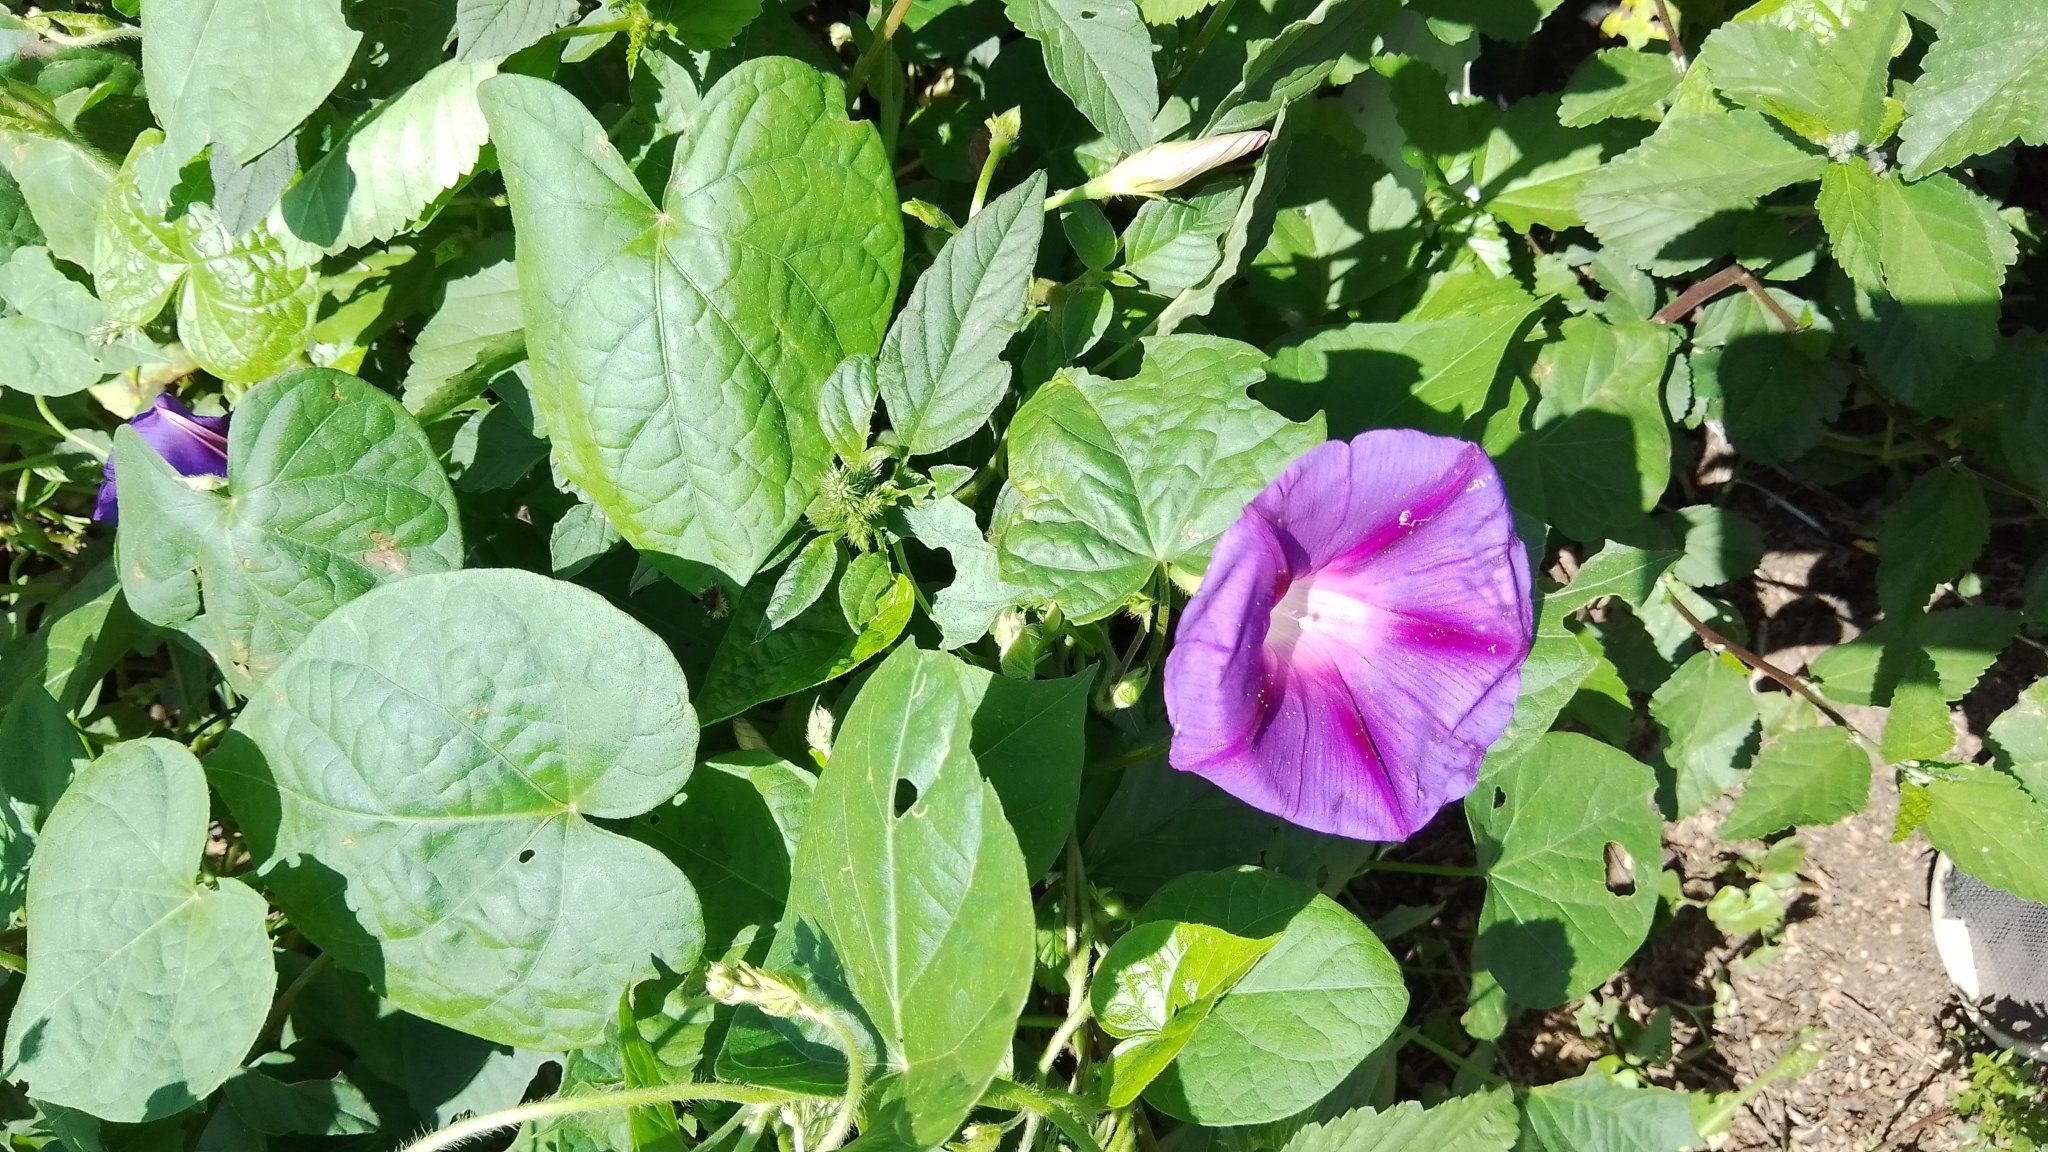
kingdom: Plantae
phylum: Tracheophyta
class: Magnoliopsida
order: Solanales
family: Convolvulaceae
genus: Ipomoea
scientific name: Ipomoea purpurea
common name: Common morning-glory
